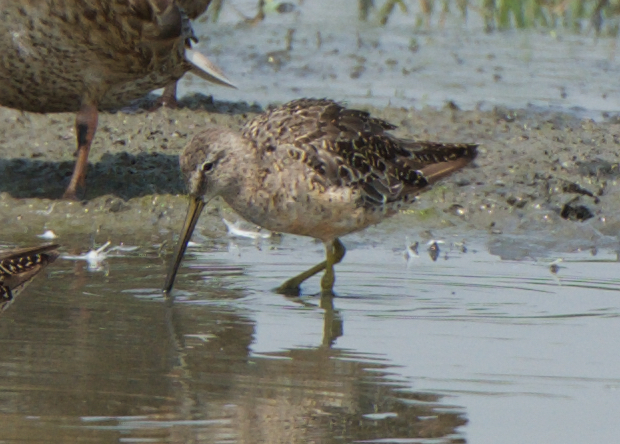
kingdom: Animalia
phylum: Chordata
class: Aves
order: Charadriiformes
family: Scolopacidae
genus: Limnodromus
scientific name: Limnodromus scolopaceus
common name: Long-billed dowitcher
